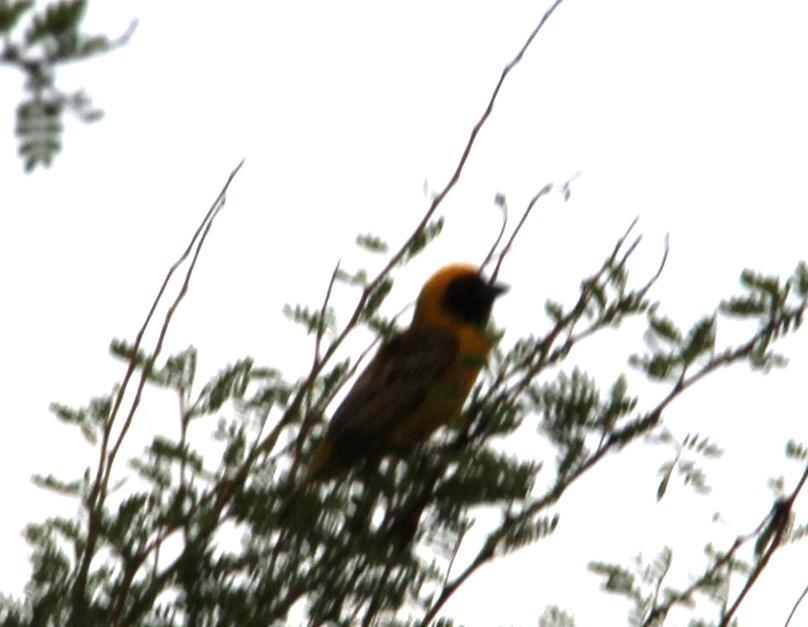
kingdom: Animalia
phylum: Chordata
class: Aves
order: Passeriformes
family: Ploceidae
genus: Ploceus
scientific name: Ploceus velatus
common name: Southern masked weaver
